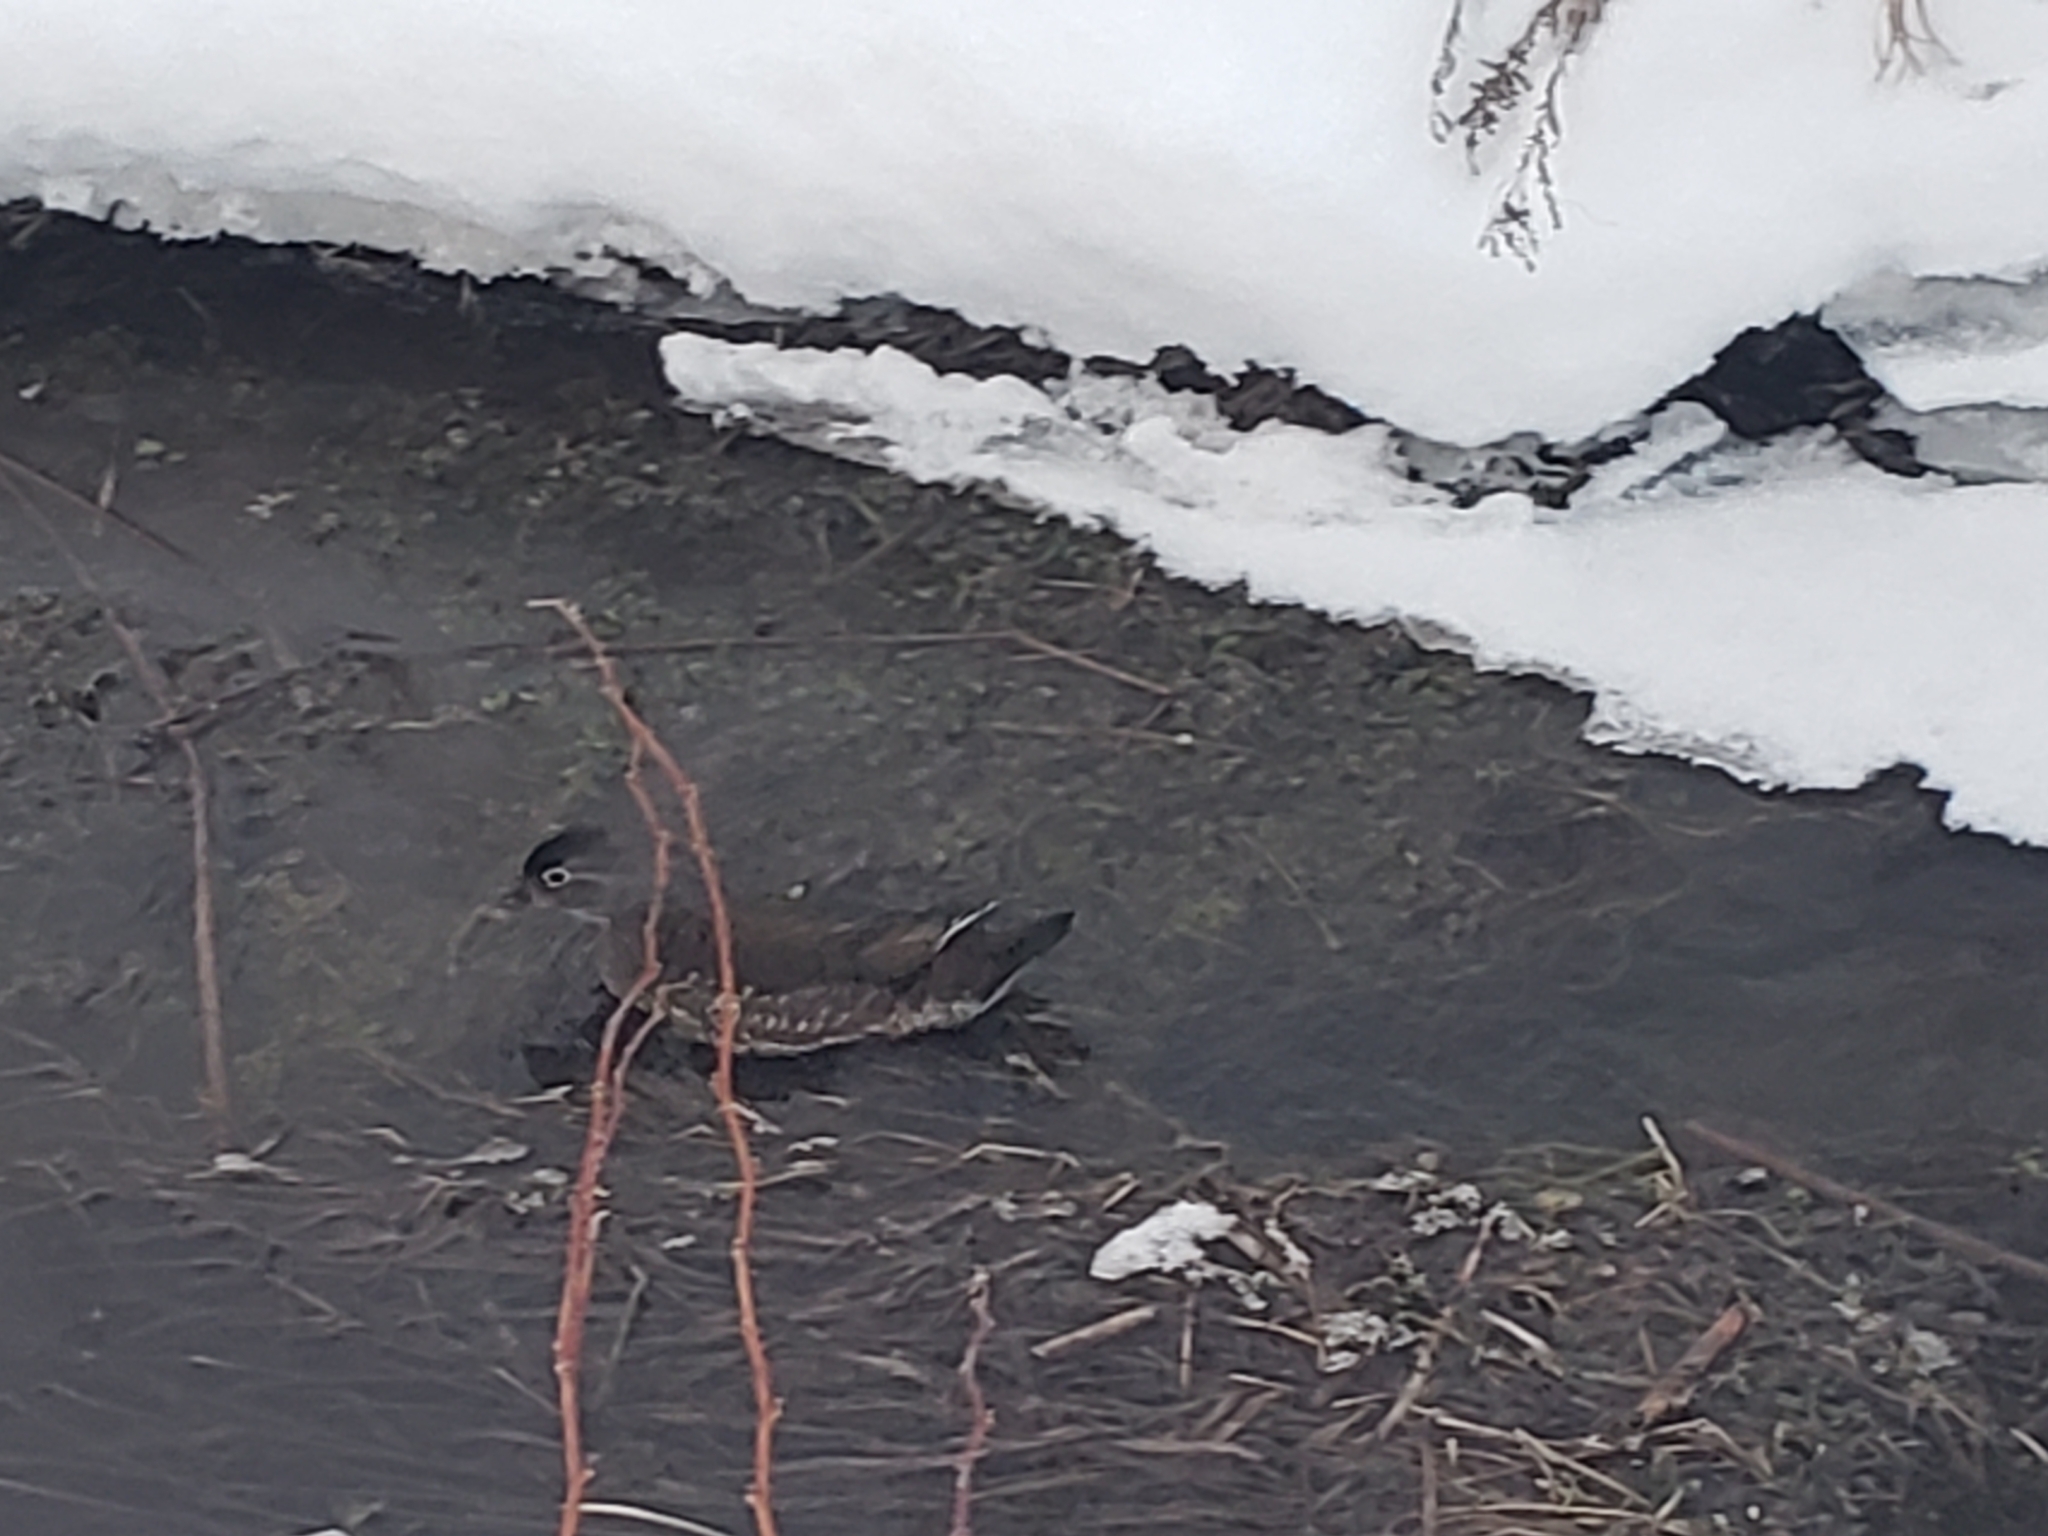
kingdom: Animalia
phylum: Chordata
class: Aves
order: Anseriformes
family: Anatidae
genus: Aix
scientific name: Aix sponsa
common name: Wood duck
